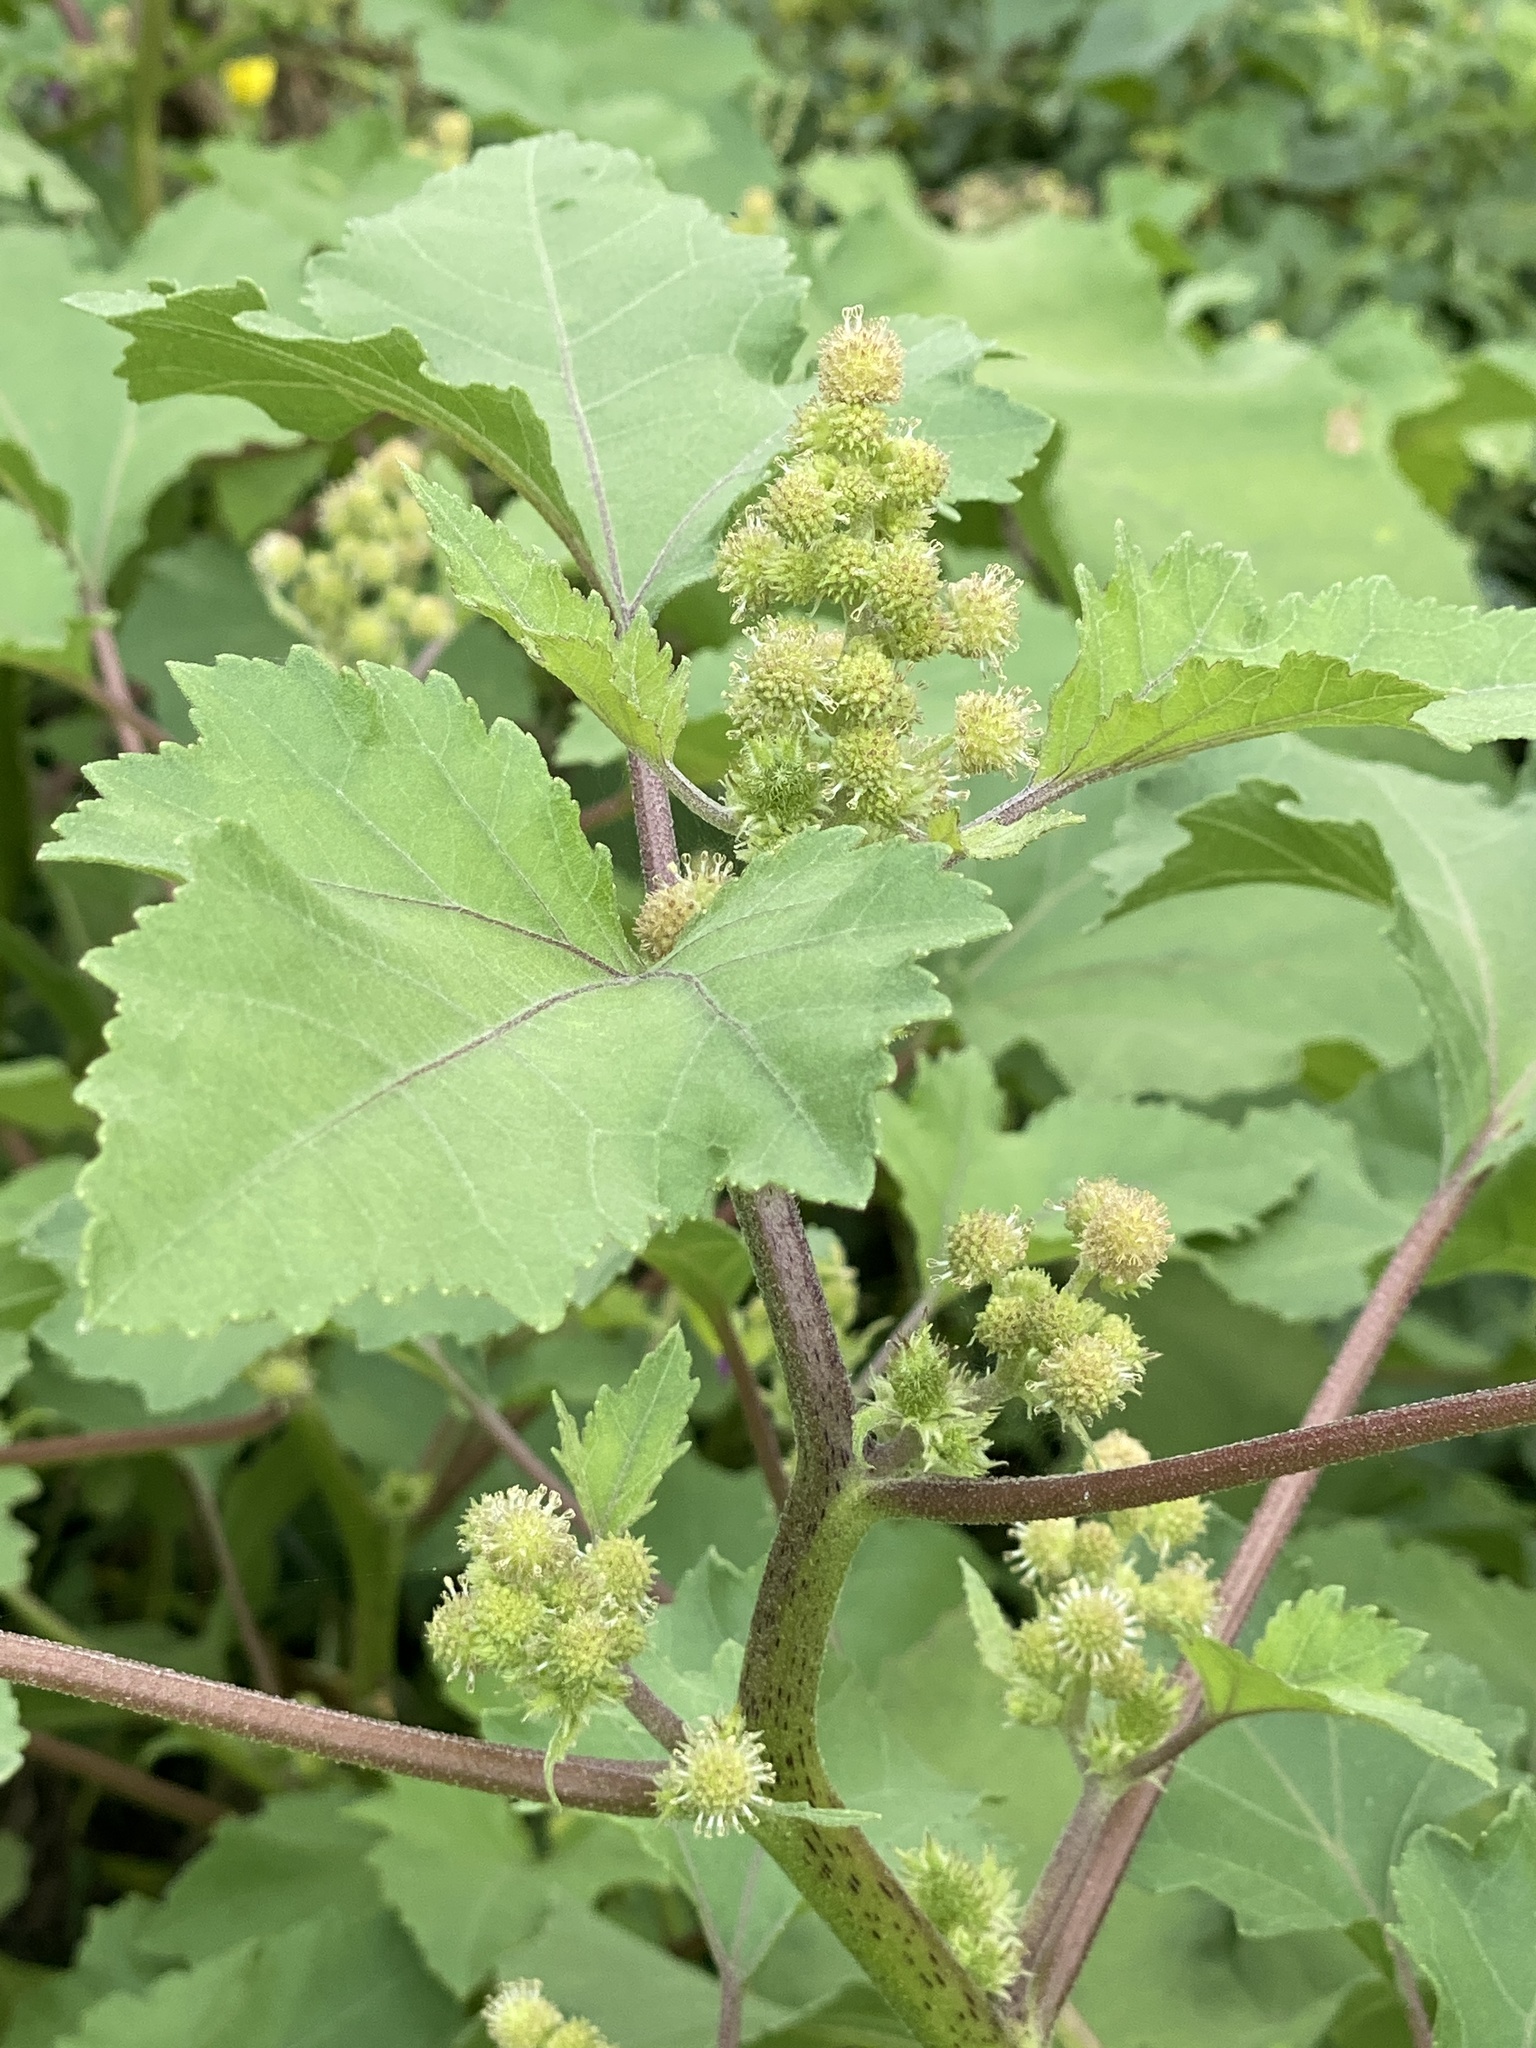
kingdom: Plantae
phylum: Tracheophyta
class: Magnoliopsida
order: Asterales
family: Asteraceae
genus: Xanthium
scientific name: Xanthium strumarium
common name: Rough cocklebur
